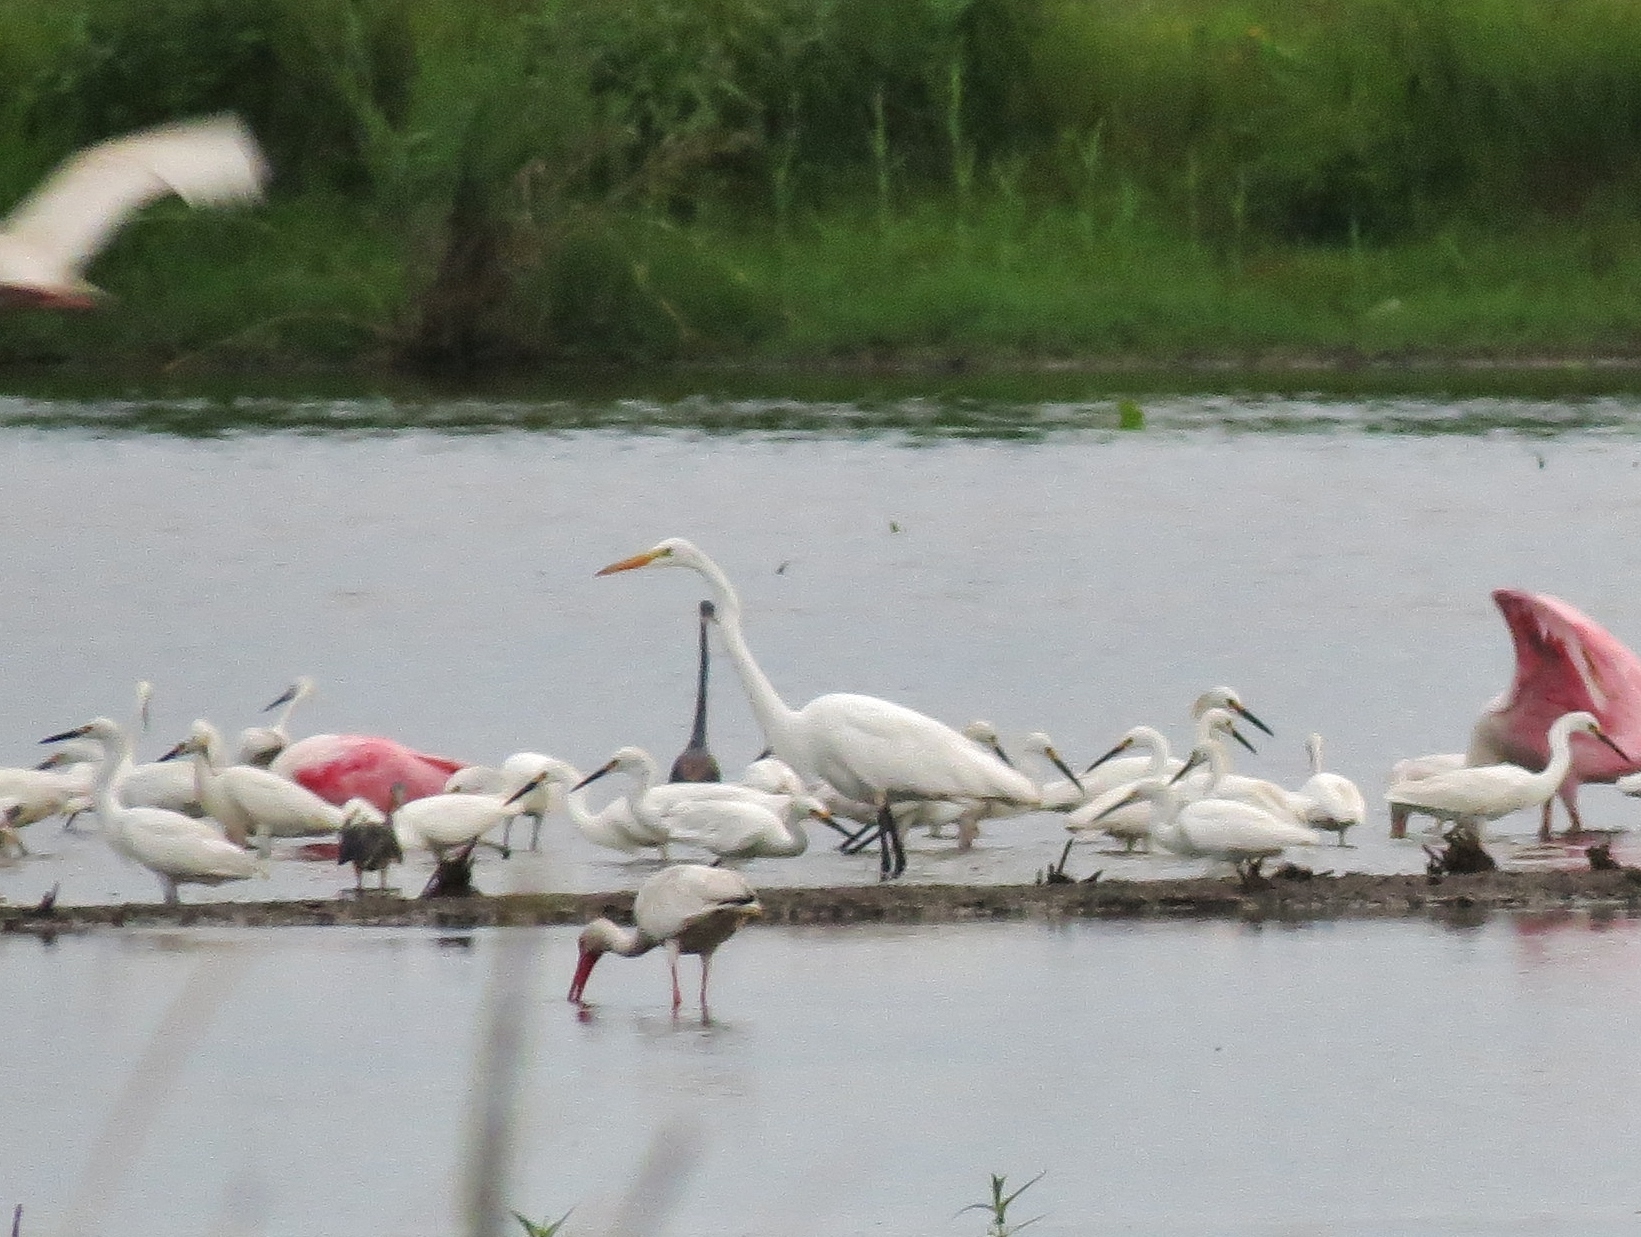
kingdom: Animalia
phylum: Chordata
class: Aves
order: Pelecaniformes
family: Ardeidae
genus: Ardea
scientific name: Ardea alba
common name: Great egret
